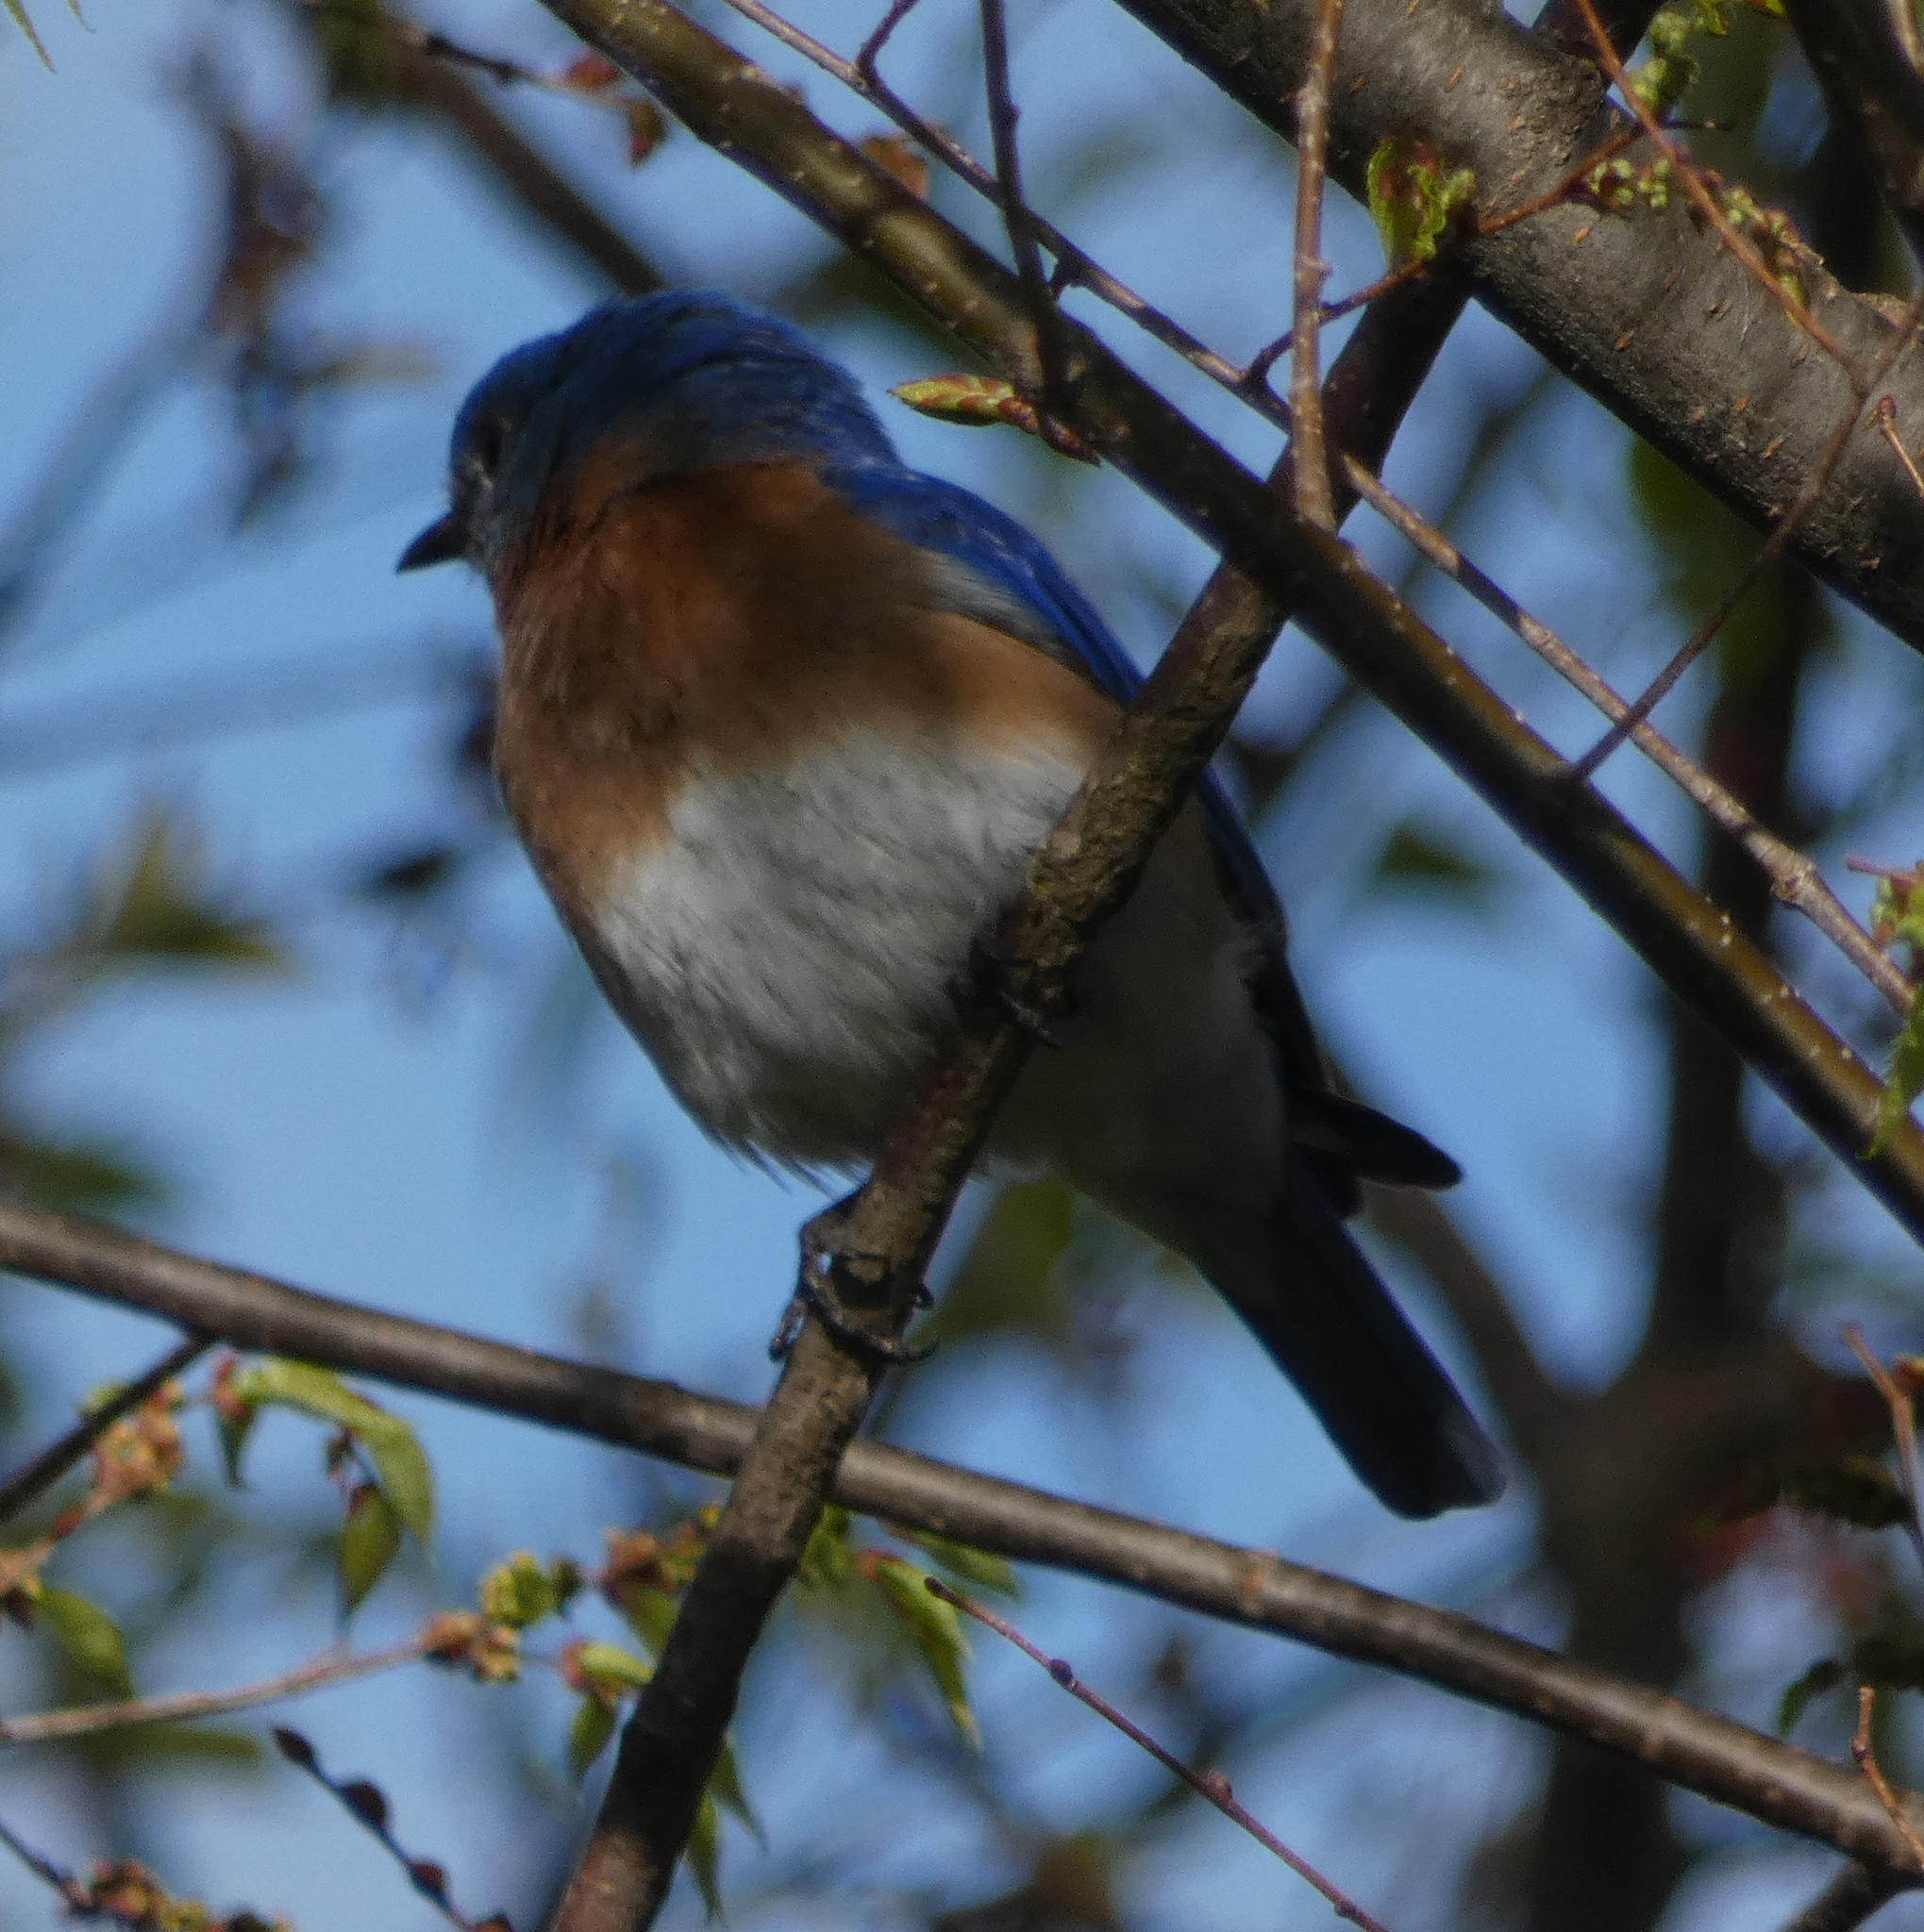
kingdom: Animalia
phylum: Chordata
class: Aves
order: Passeriformes
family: Turdidae
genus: Sialia
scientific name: Sialia sialis
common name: Eastern bluebird
